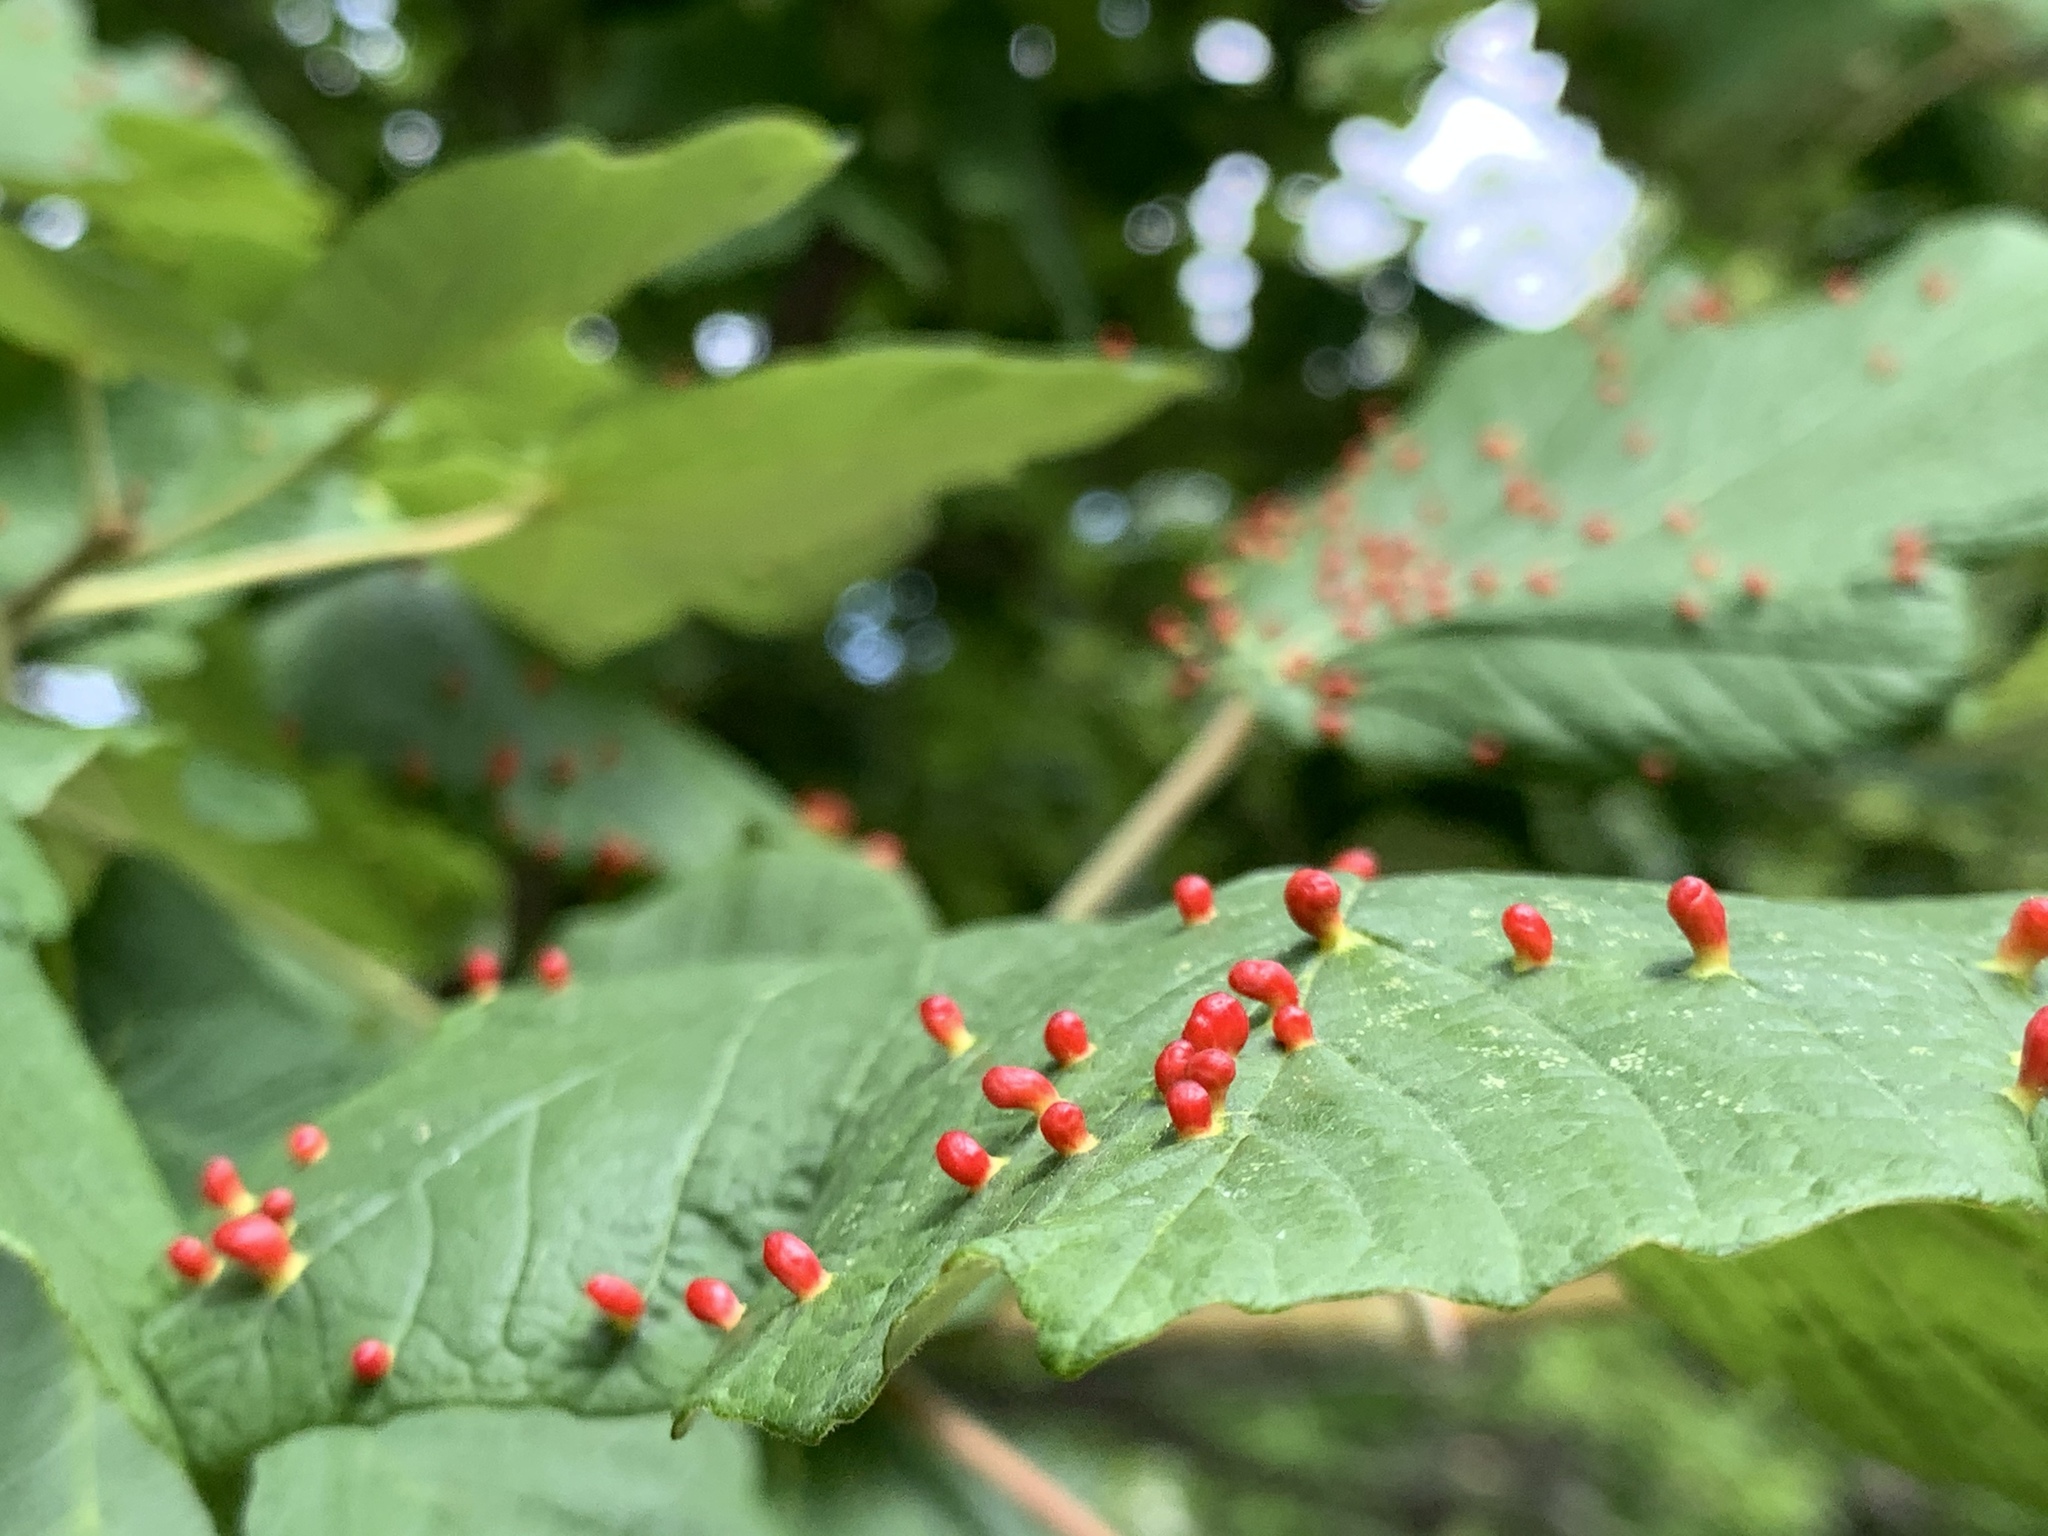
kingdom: Animalia
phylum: Arthropoda
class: Arachnida
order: Trombidiformes
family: Eriophyidae
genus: Aceria
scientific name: Aceria cephaloneus
